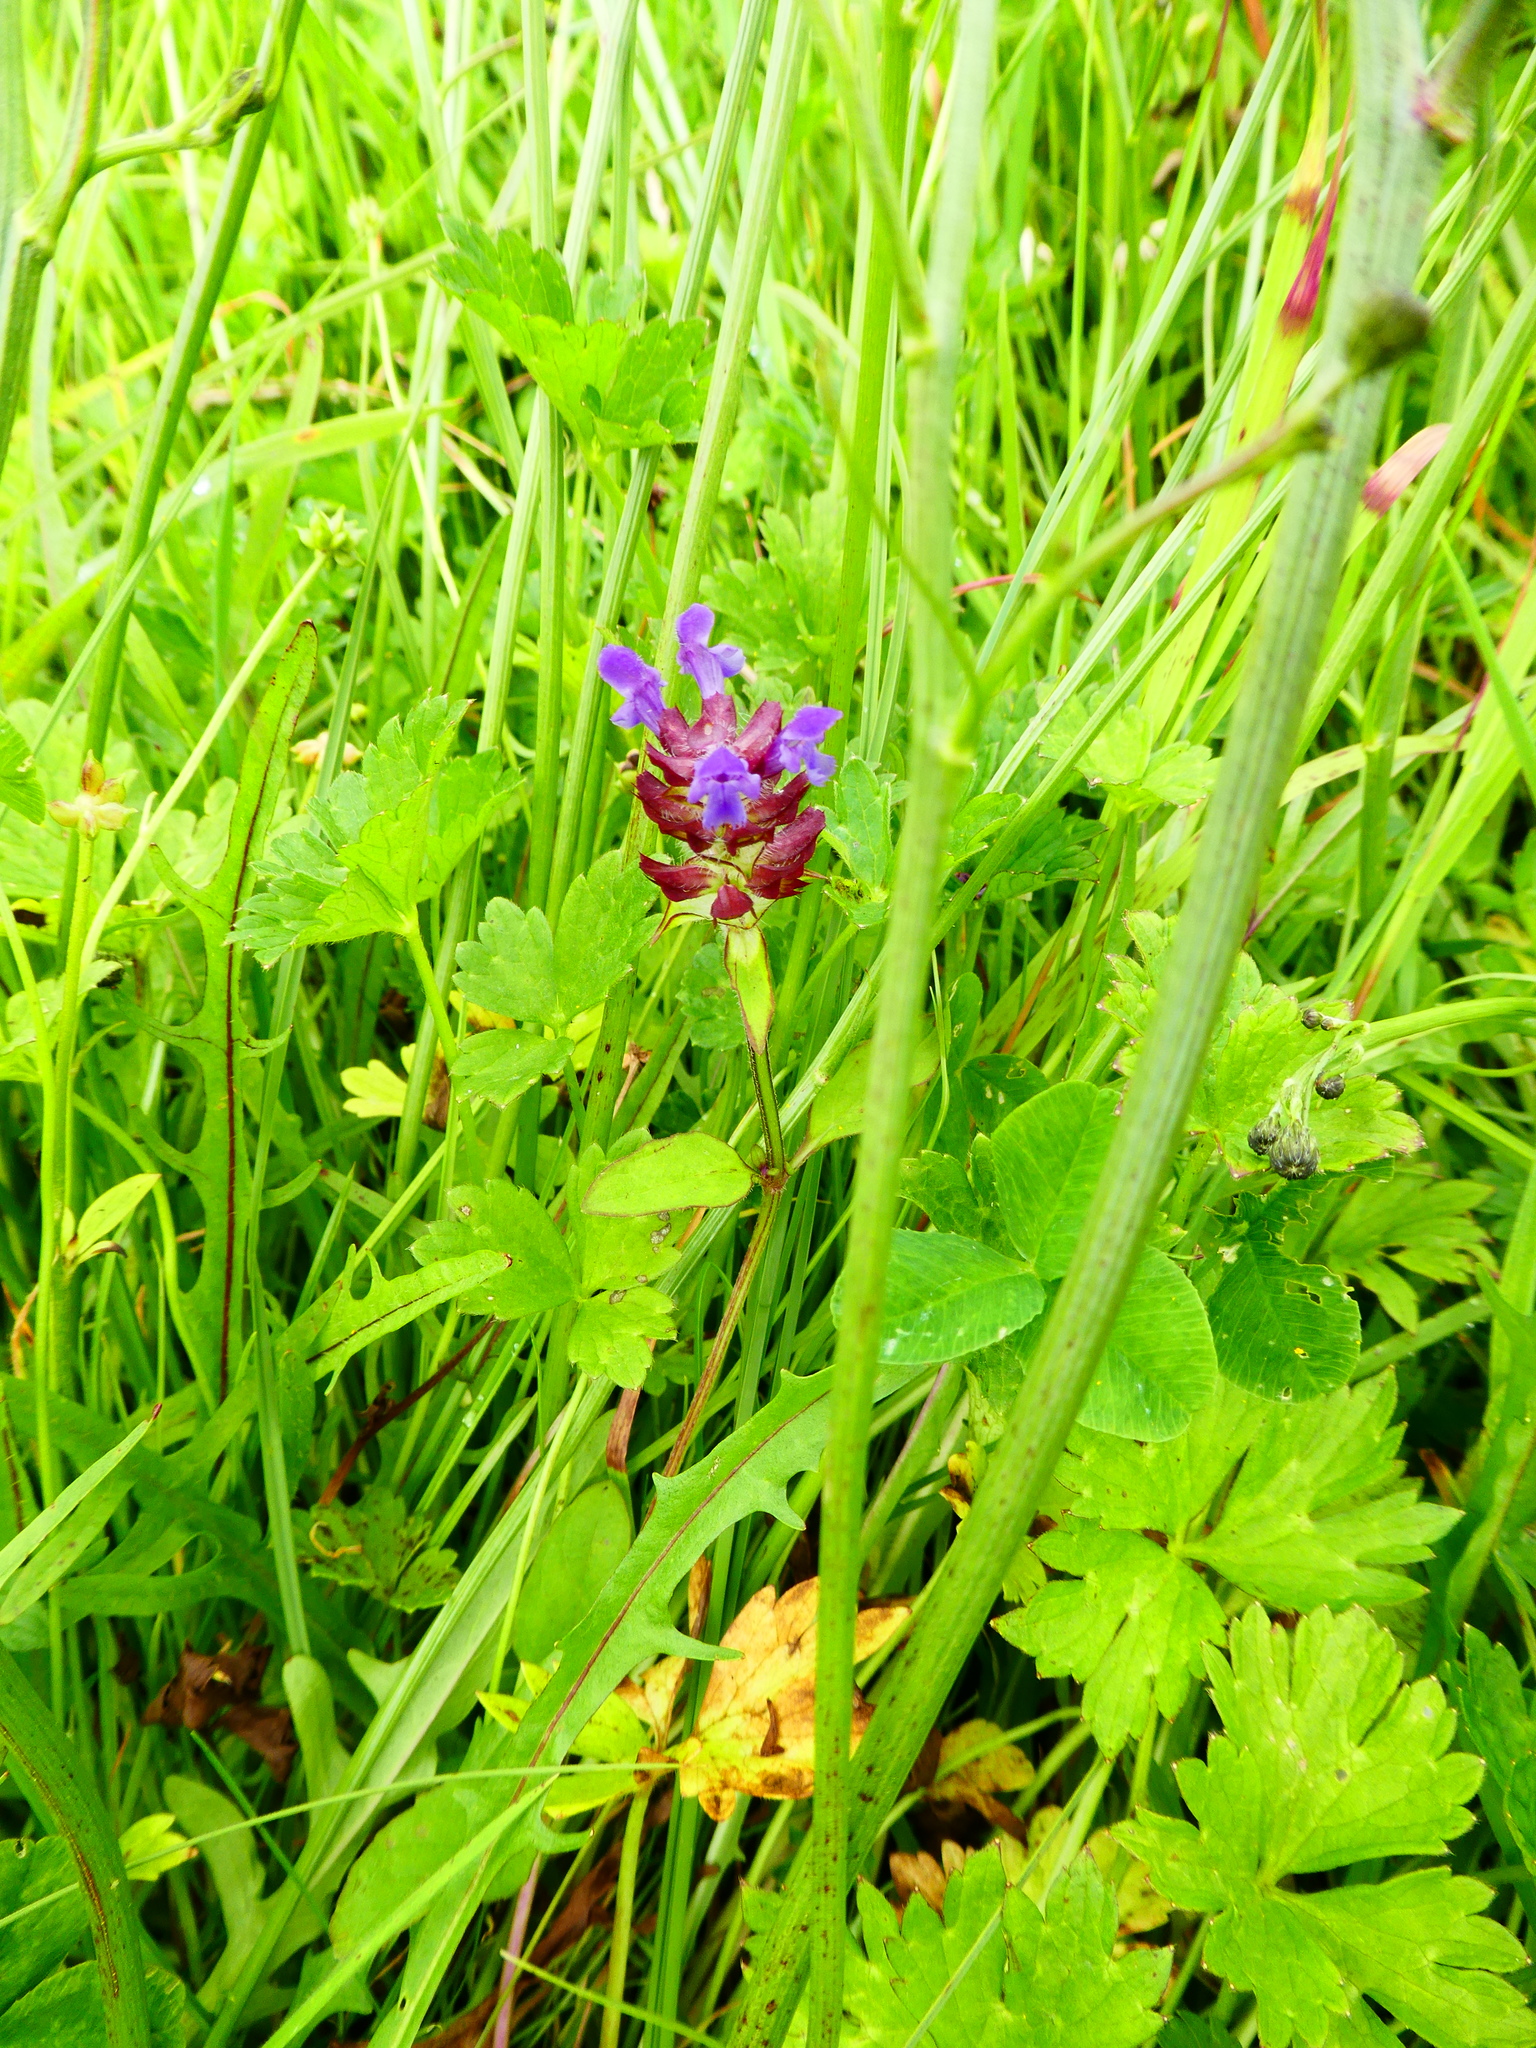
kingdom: Plantae
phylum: Tracheophyta
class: Magnoliopsida
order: Lamiales
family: Lamiaceae
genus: Prunella
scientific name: Prunella vulgaris
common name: Heal-all
